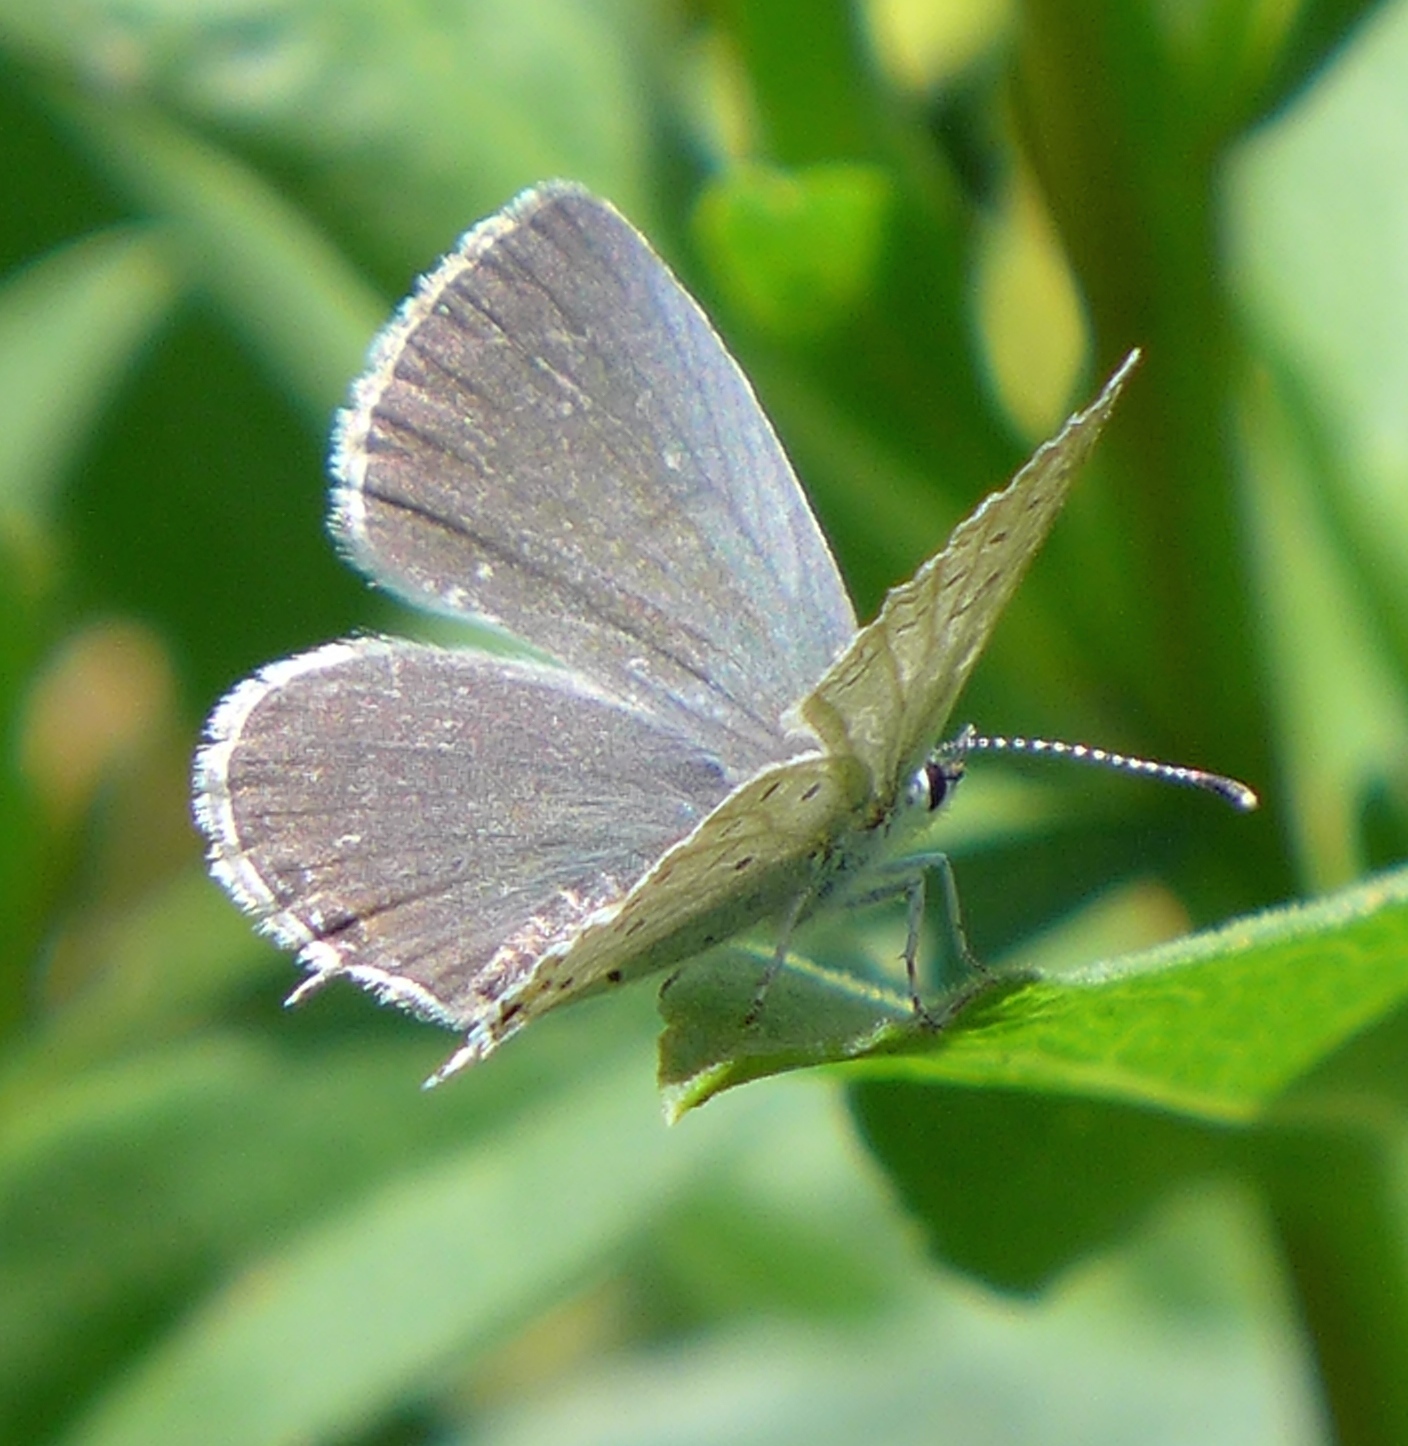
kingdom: Animalia
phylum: Arthropoda
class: Insecta
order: Lepidoptera
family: Lycaenidae
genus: Elkalyce
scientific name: Elkalyce amyntula
